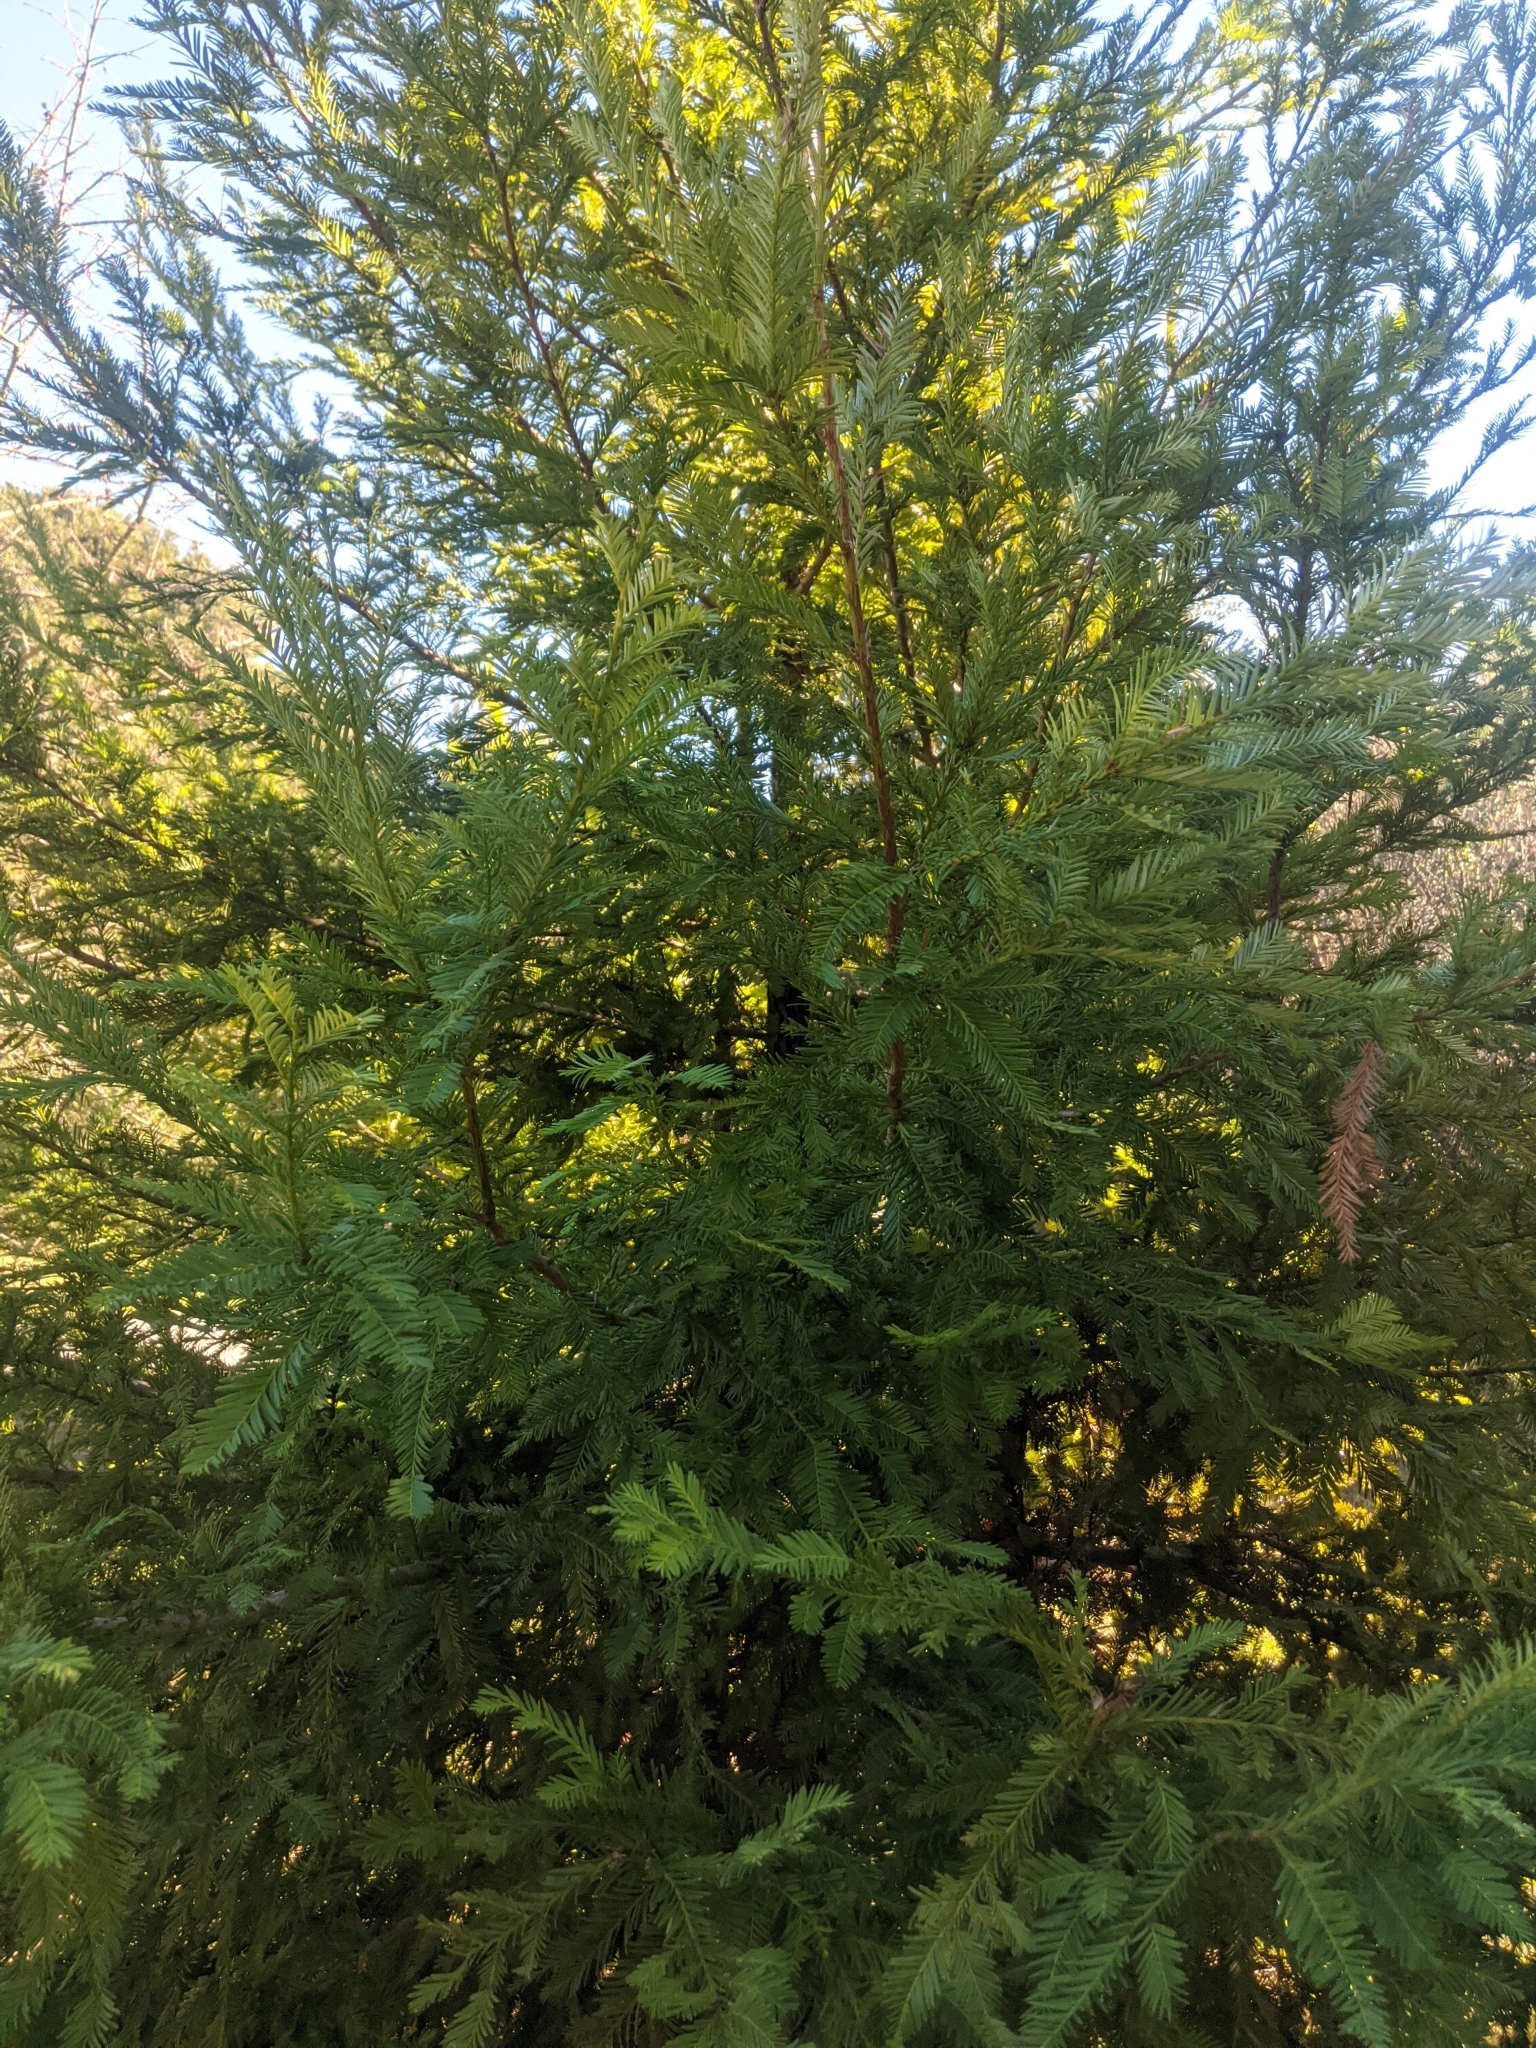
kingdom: Plantae
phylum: Tracheophyta
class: Pinopsida
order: Pinales
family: Cupressaceae
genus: Sequoia
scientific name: Sequoia sempervirens
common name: Coast redwood
